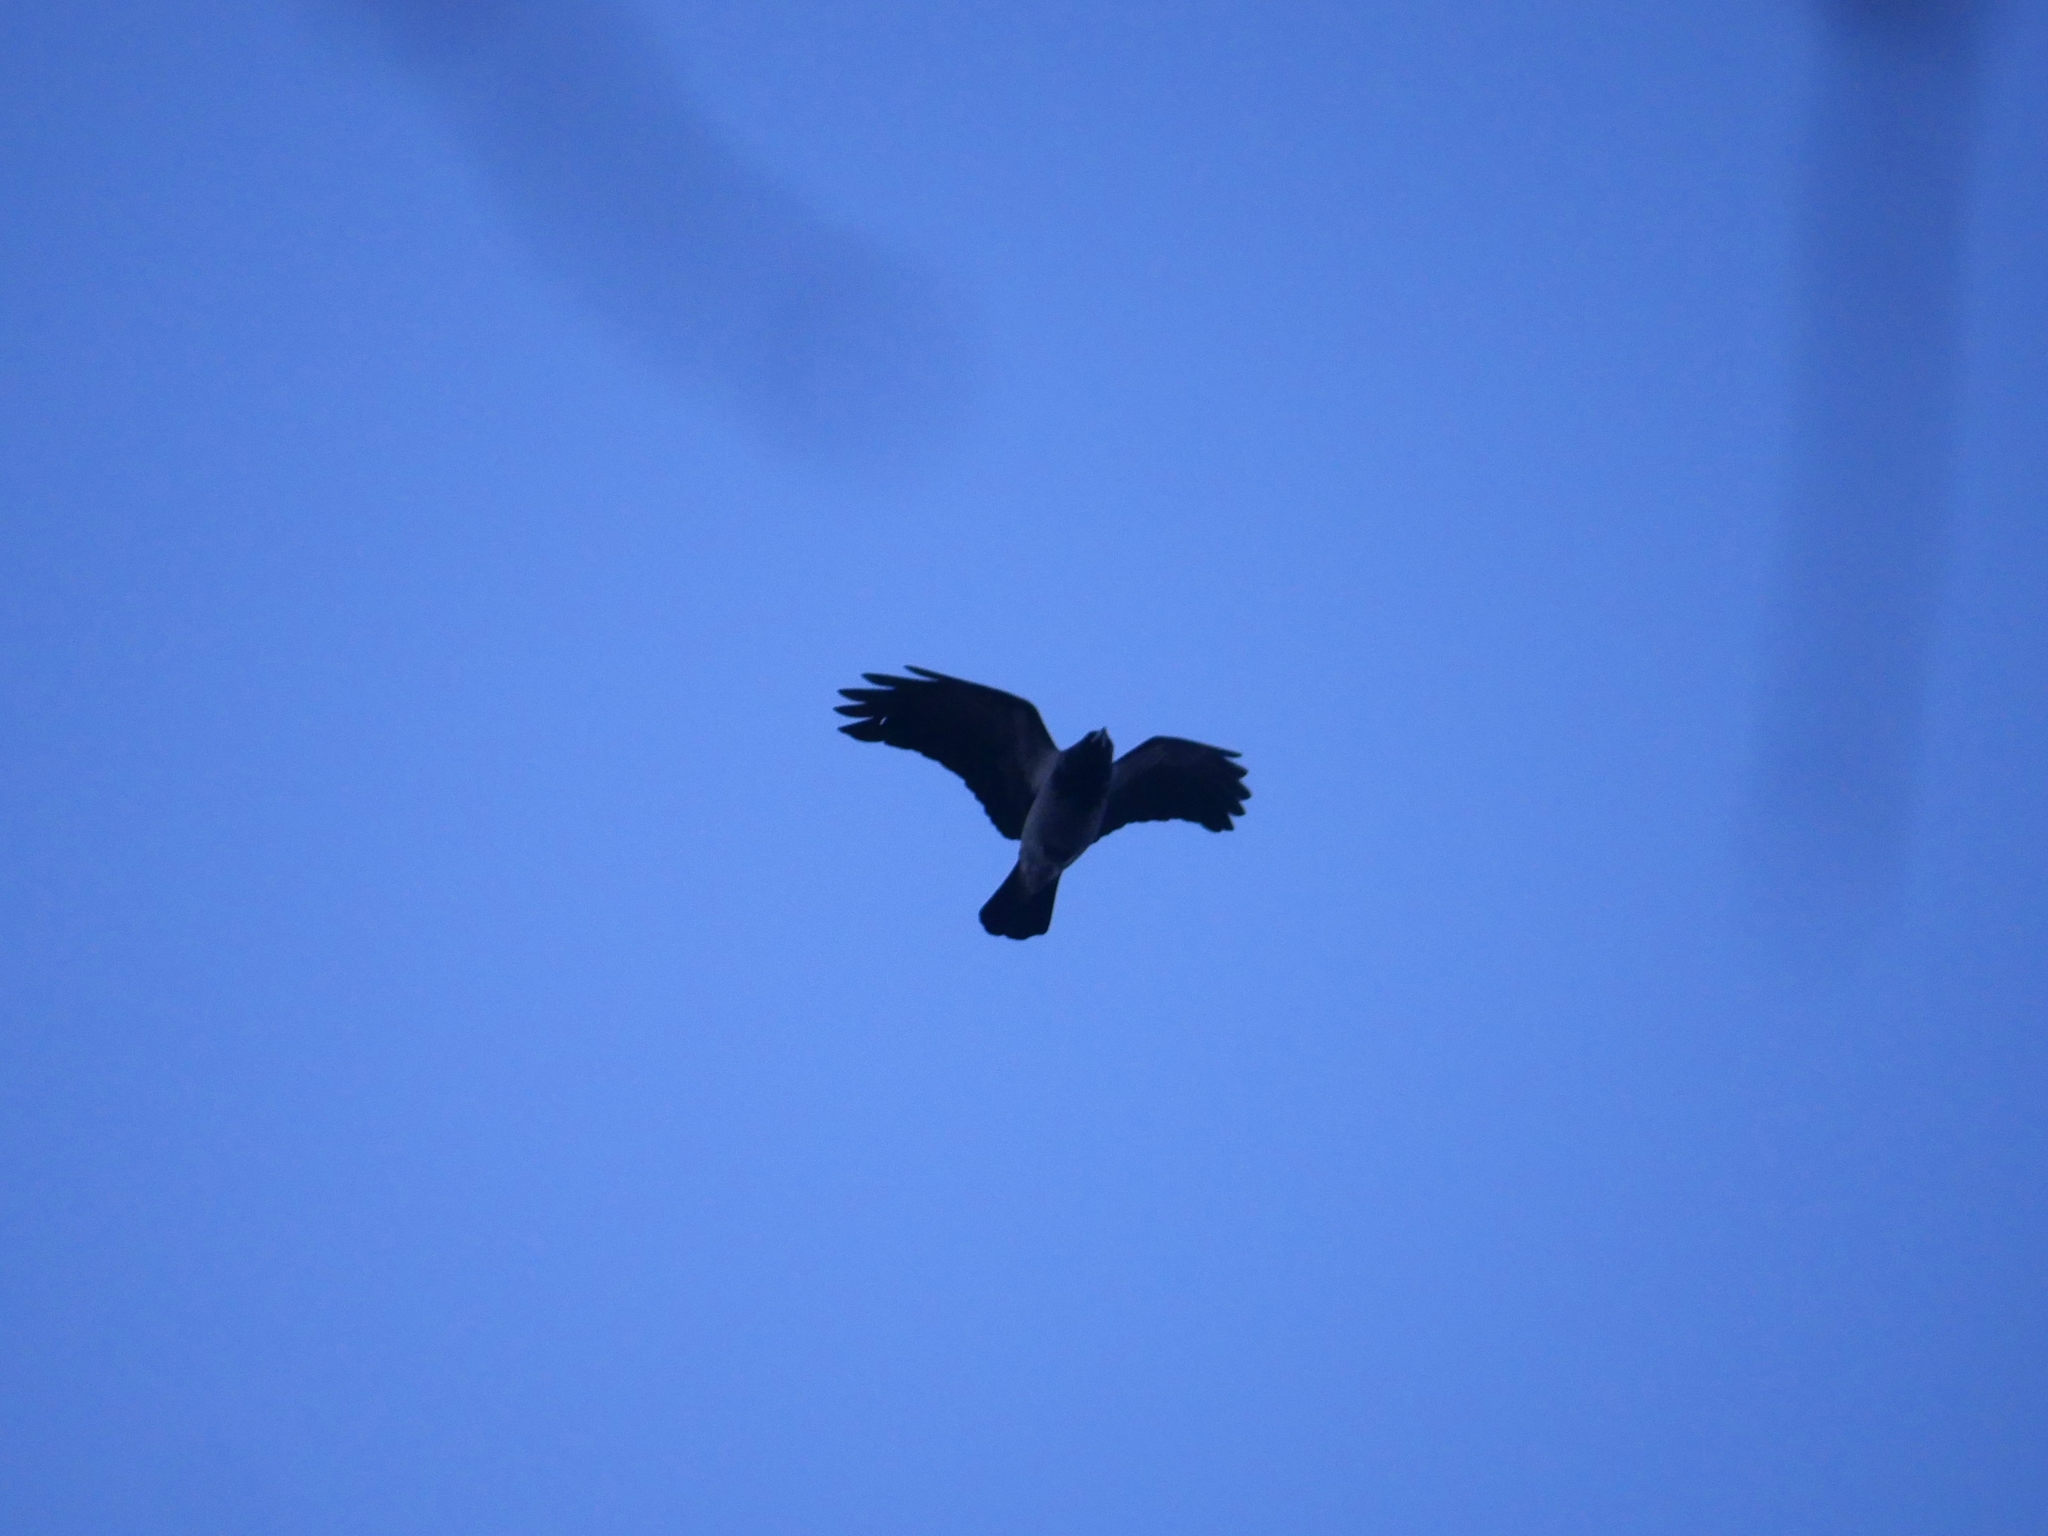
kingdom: Animalia
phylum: Chordata
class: Aves
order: Passeriformes
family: Corvidae
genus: Corvus
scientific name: Corvus cornix
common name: Hooded crow
